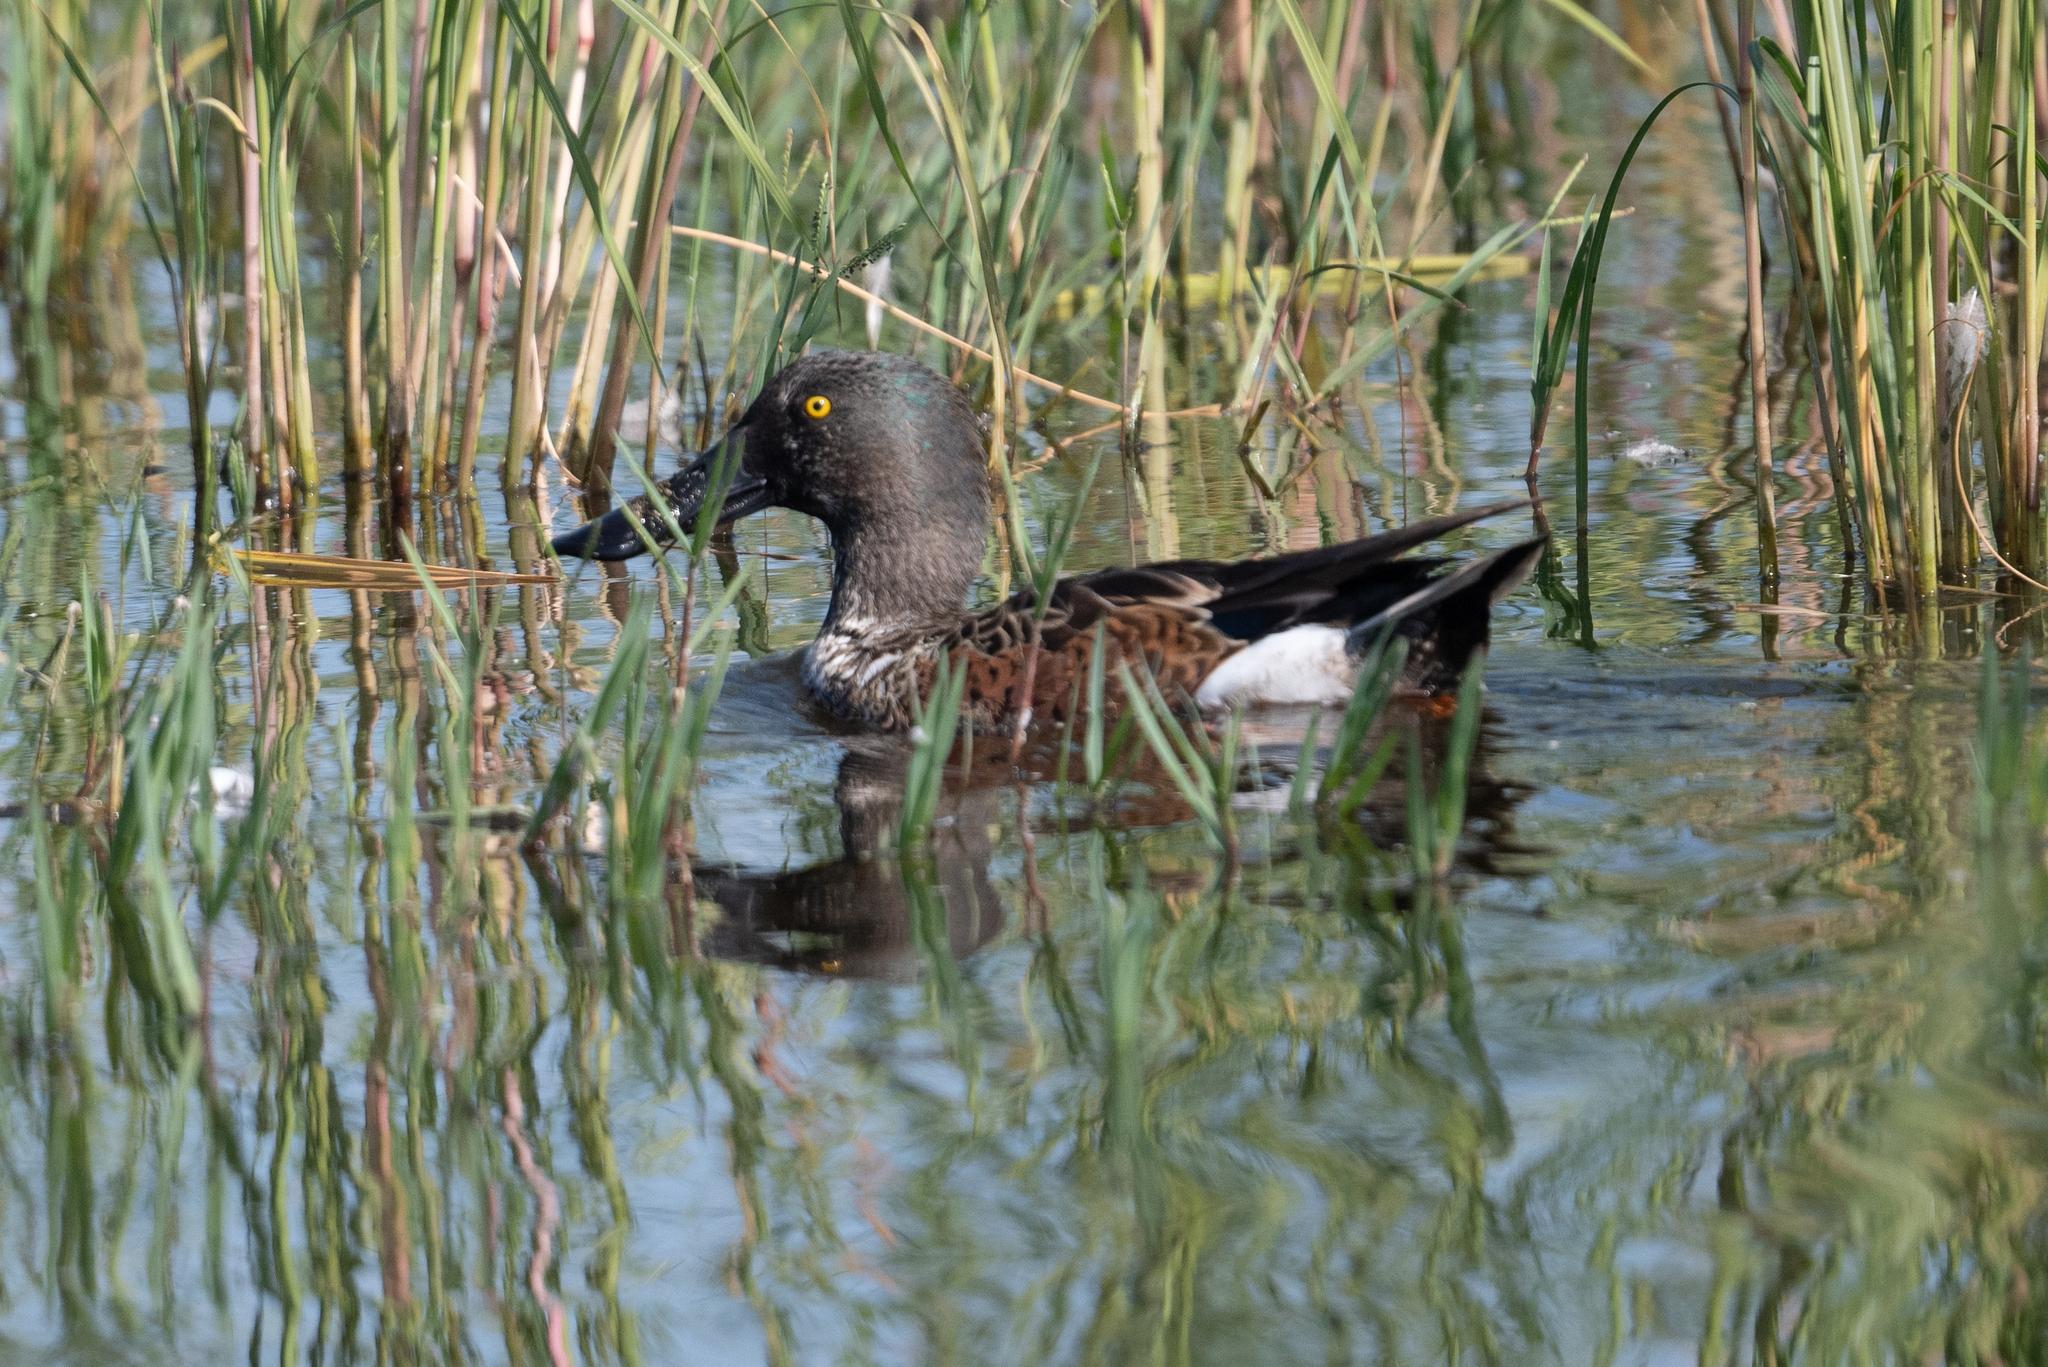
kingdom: Animalia
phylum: Chordata
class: Aves
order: Anseriformes
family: Anatidae
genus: Spatula
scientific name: Spatula clypeata
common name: Northern shoveler
